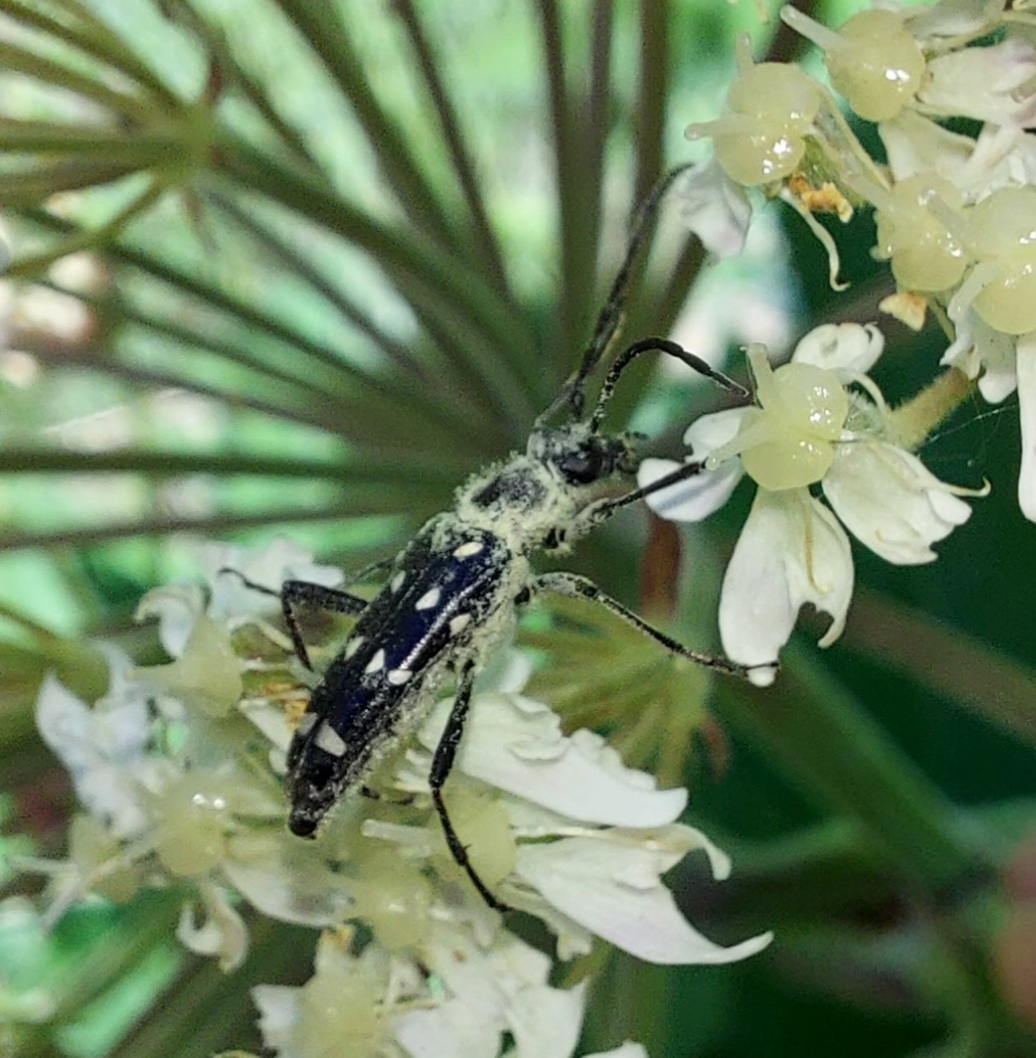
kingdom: Animalia
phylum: Arthropoda
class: Insecta
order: Coleoptera
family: Cerambycidae
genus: Leptura
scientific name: Leptura duodecimguttata
